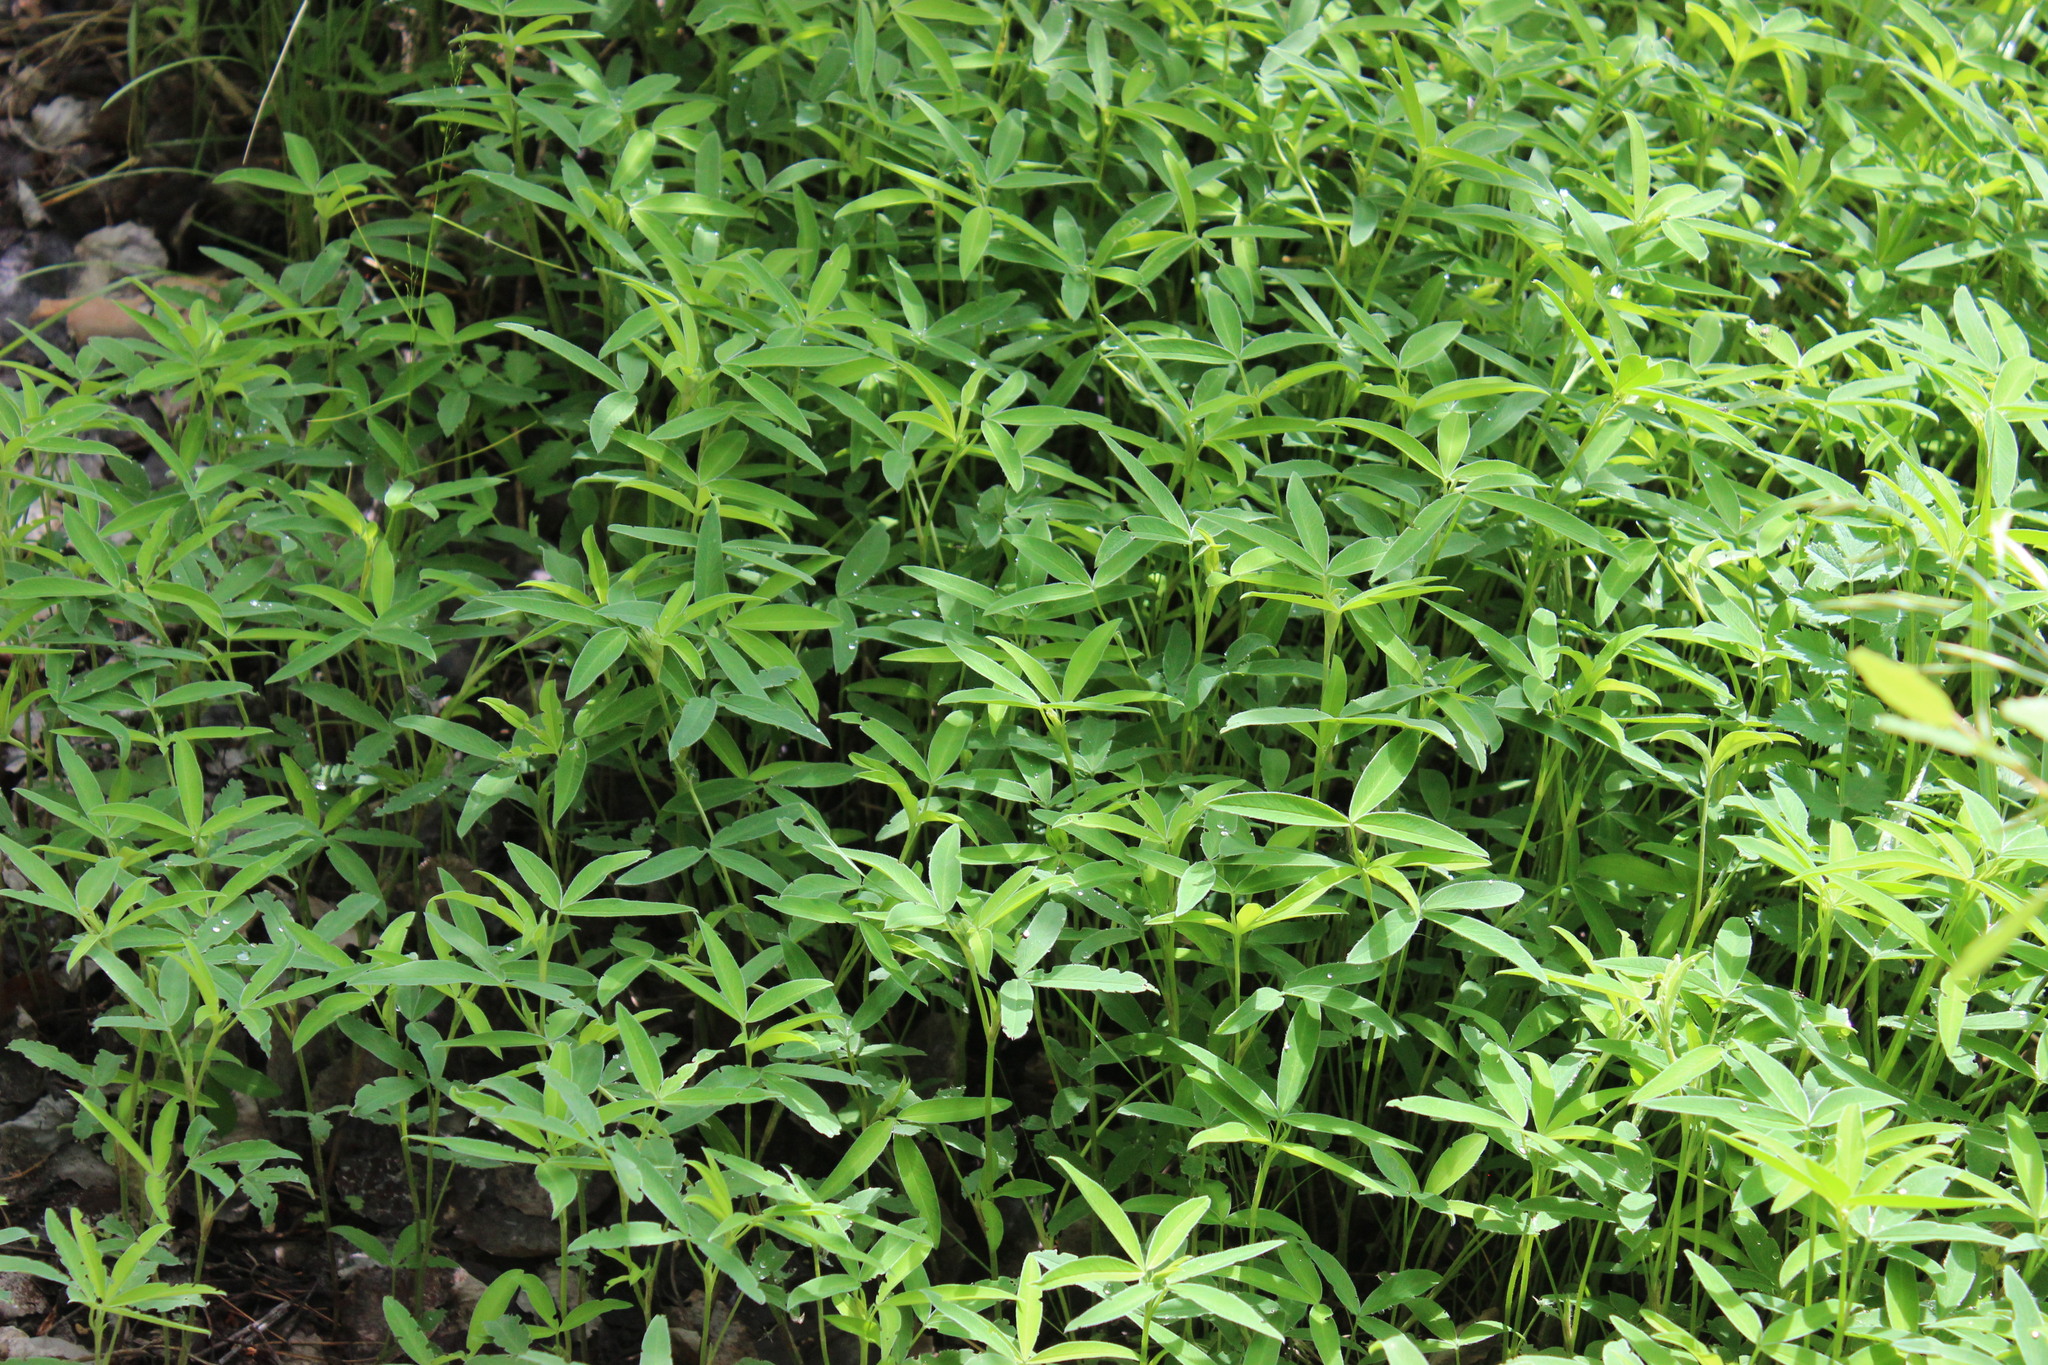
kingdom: Plantae
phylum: Tracheophyta
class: Magnoliopsida
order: Fabales
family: Fabaceae
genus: Trifolium
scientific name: Trifolium medium
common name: Zigzag clover
